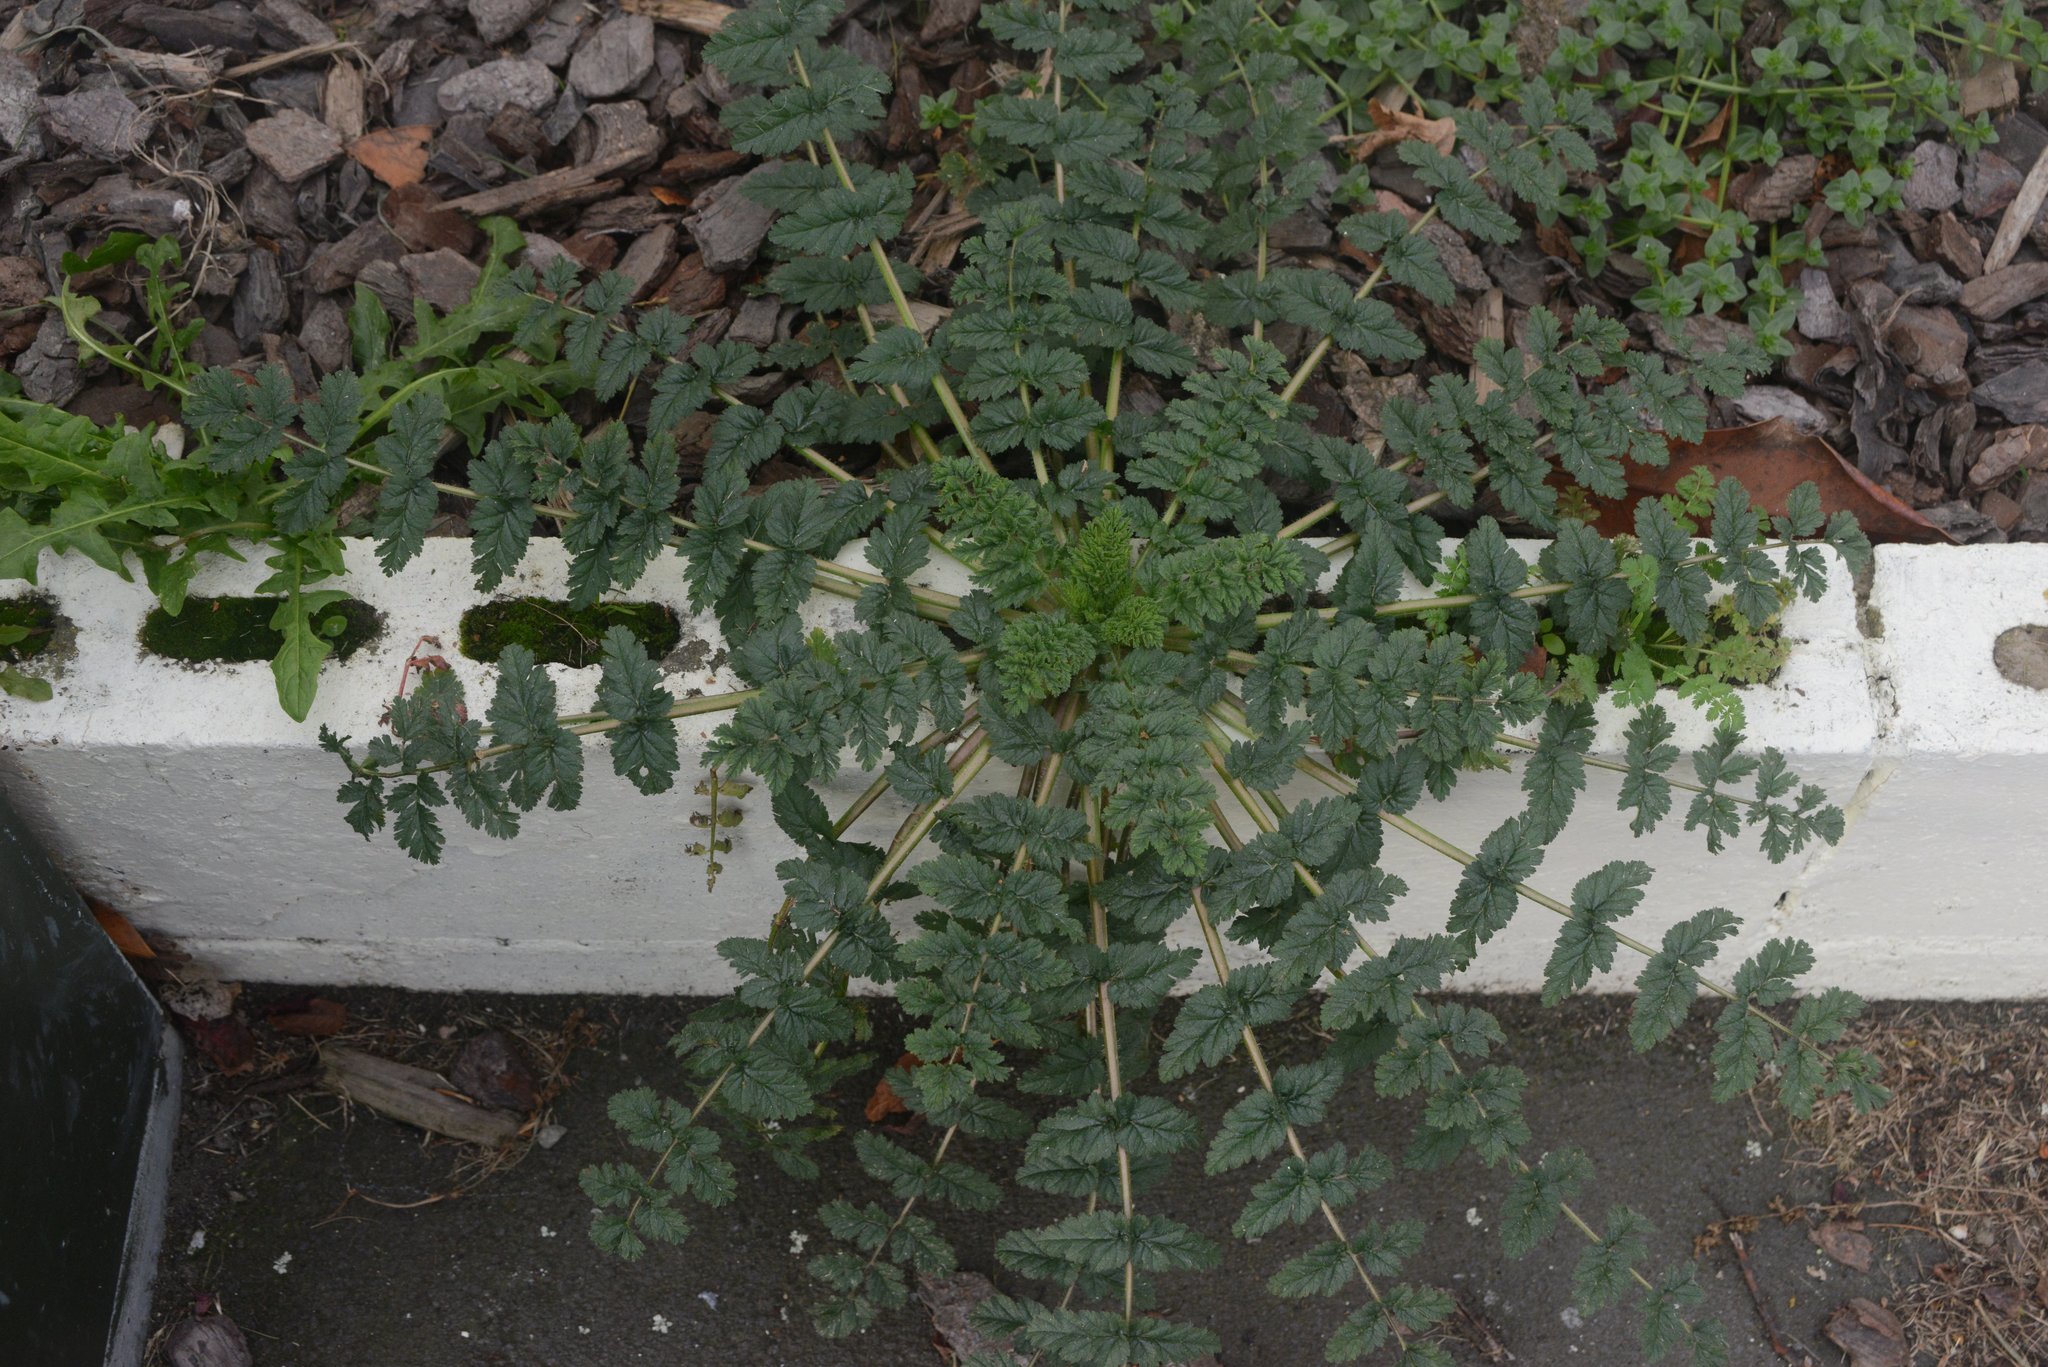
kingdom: Plantae
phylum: Tracheophyta
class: Magnoliopsida
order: Geraniales
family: Geraniaceae
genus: Erodium
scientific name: Erodium moschatum
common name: Musk stork's-bill
